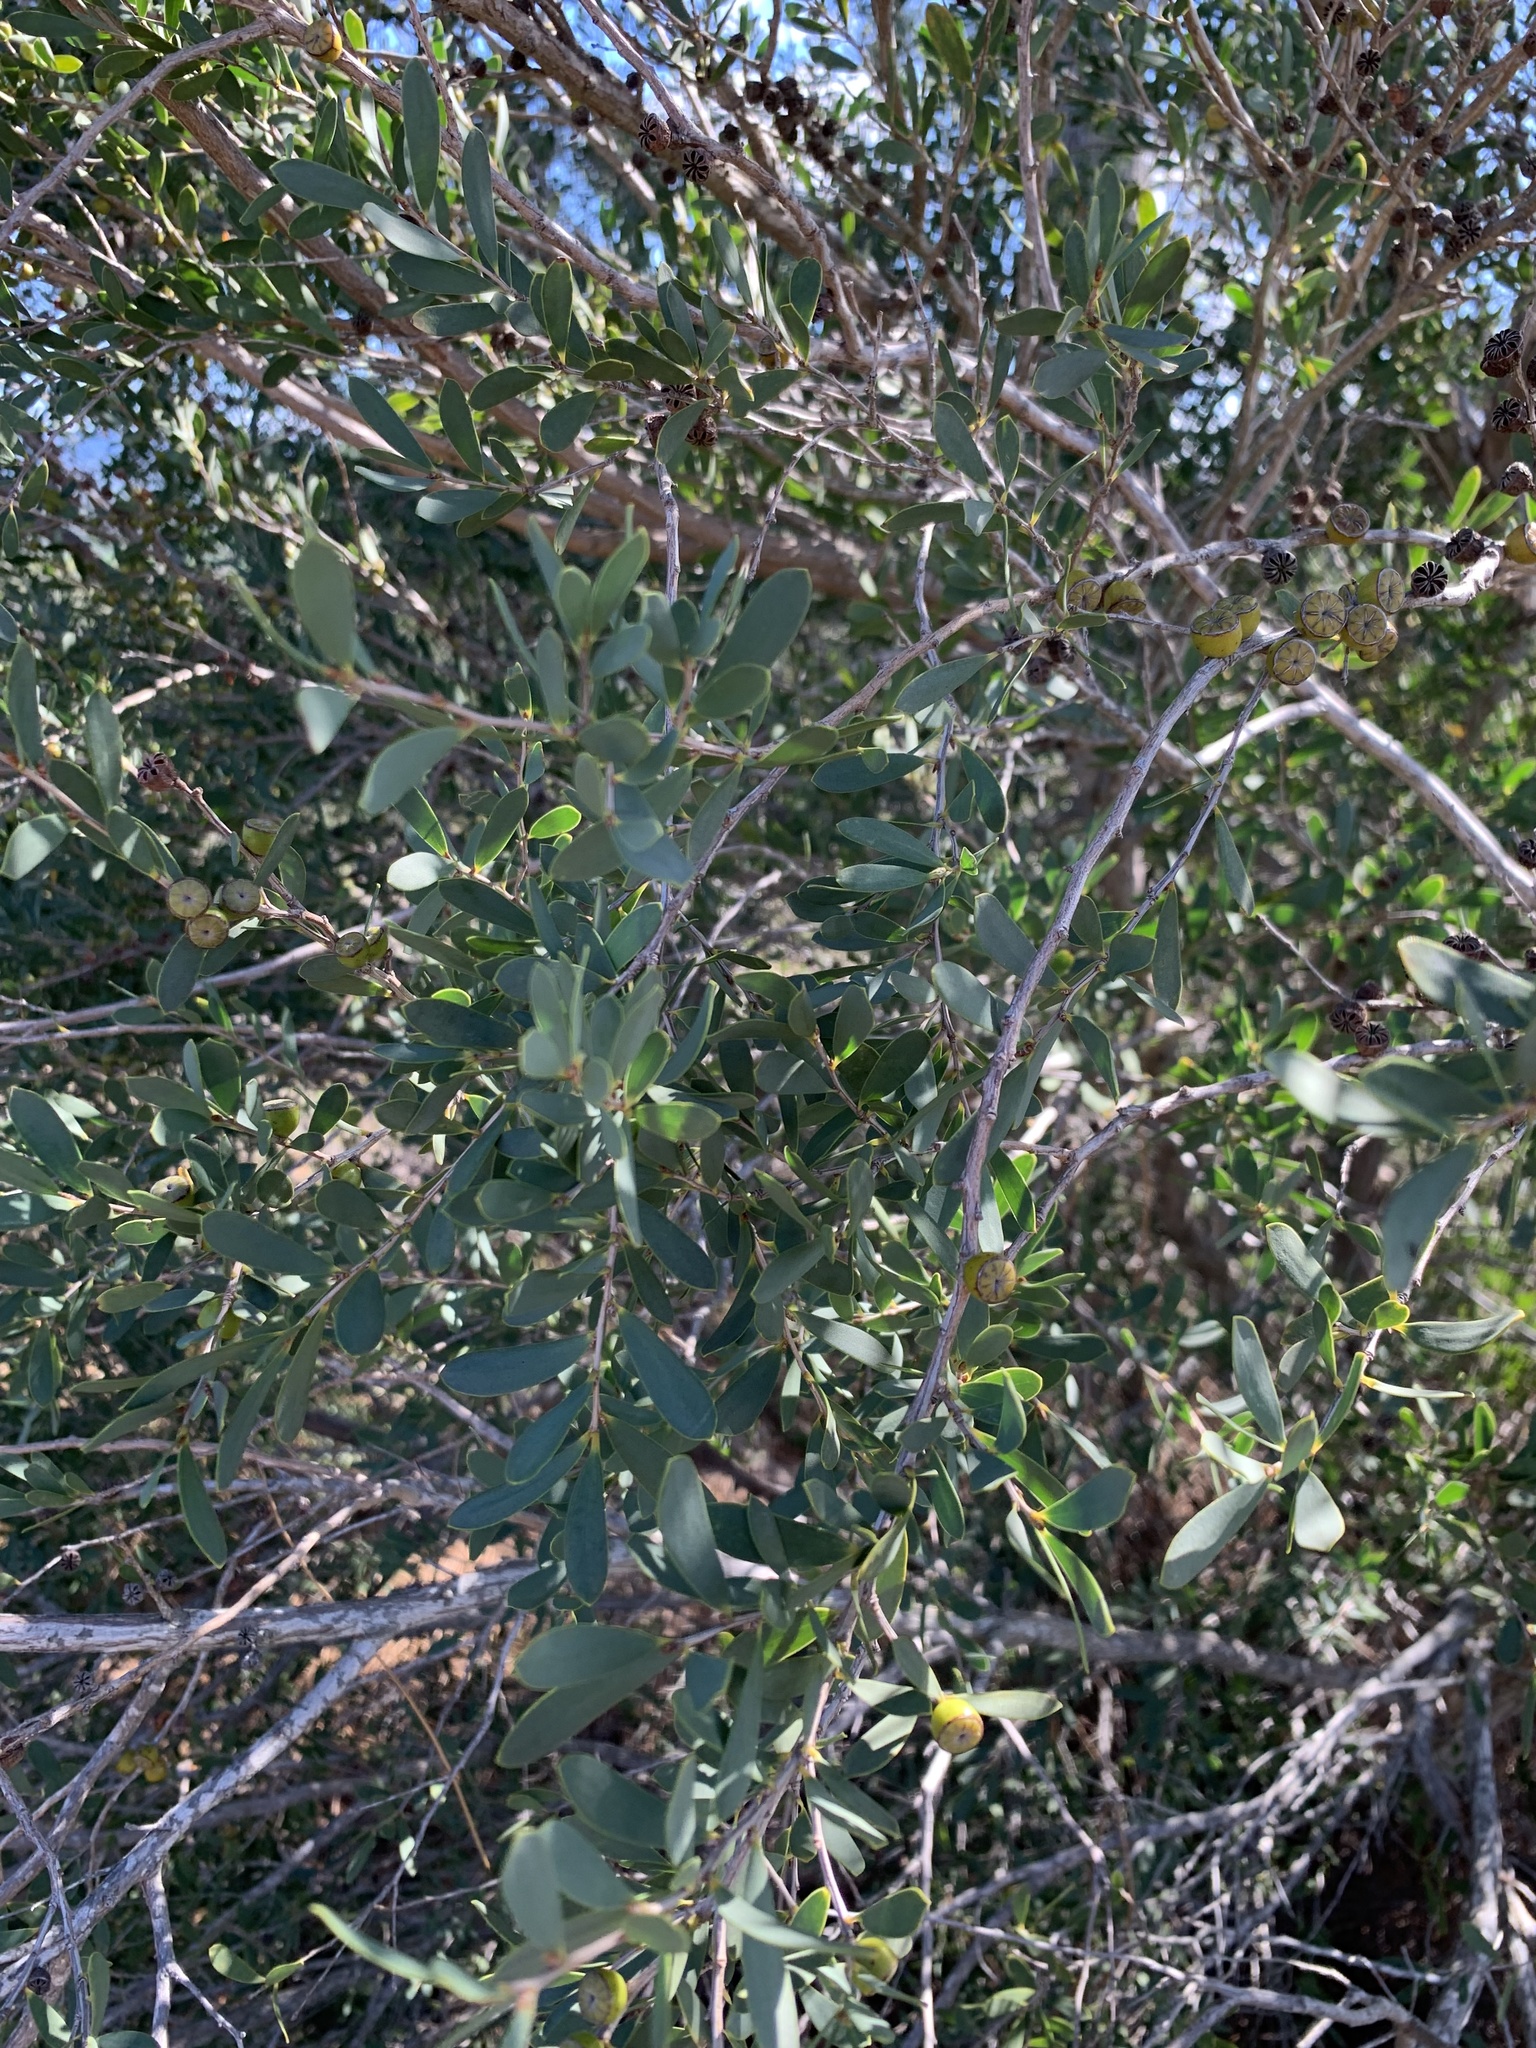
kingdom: Plantae
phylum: Tracheophyta
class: Magnoliopsida
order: Myrtales
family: Myrtaceae
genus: Leptospermum
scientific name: Leptospermum laevigatum
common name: Australian teatree
